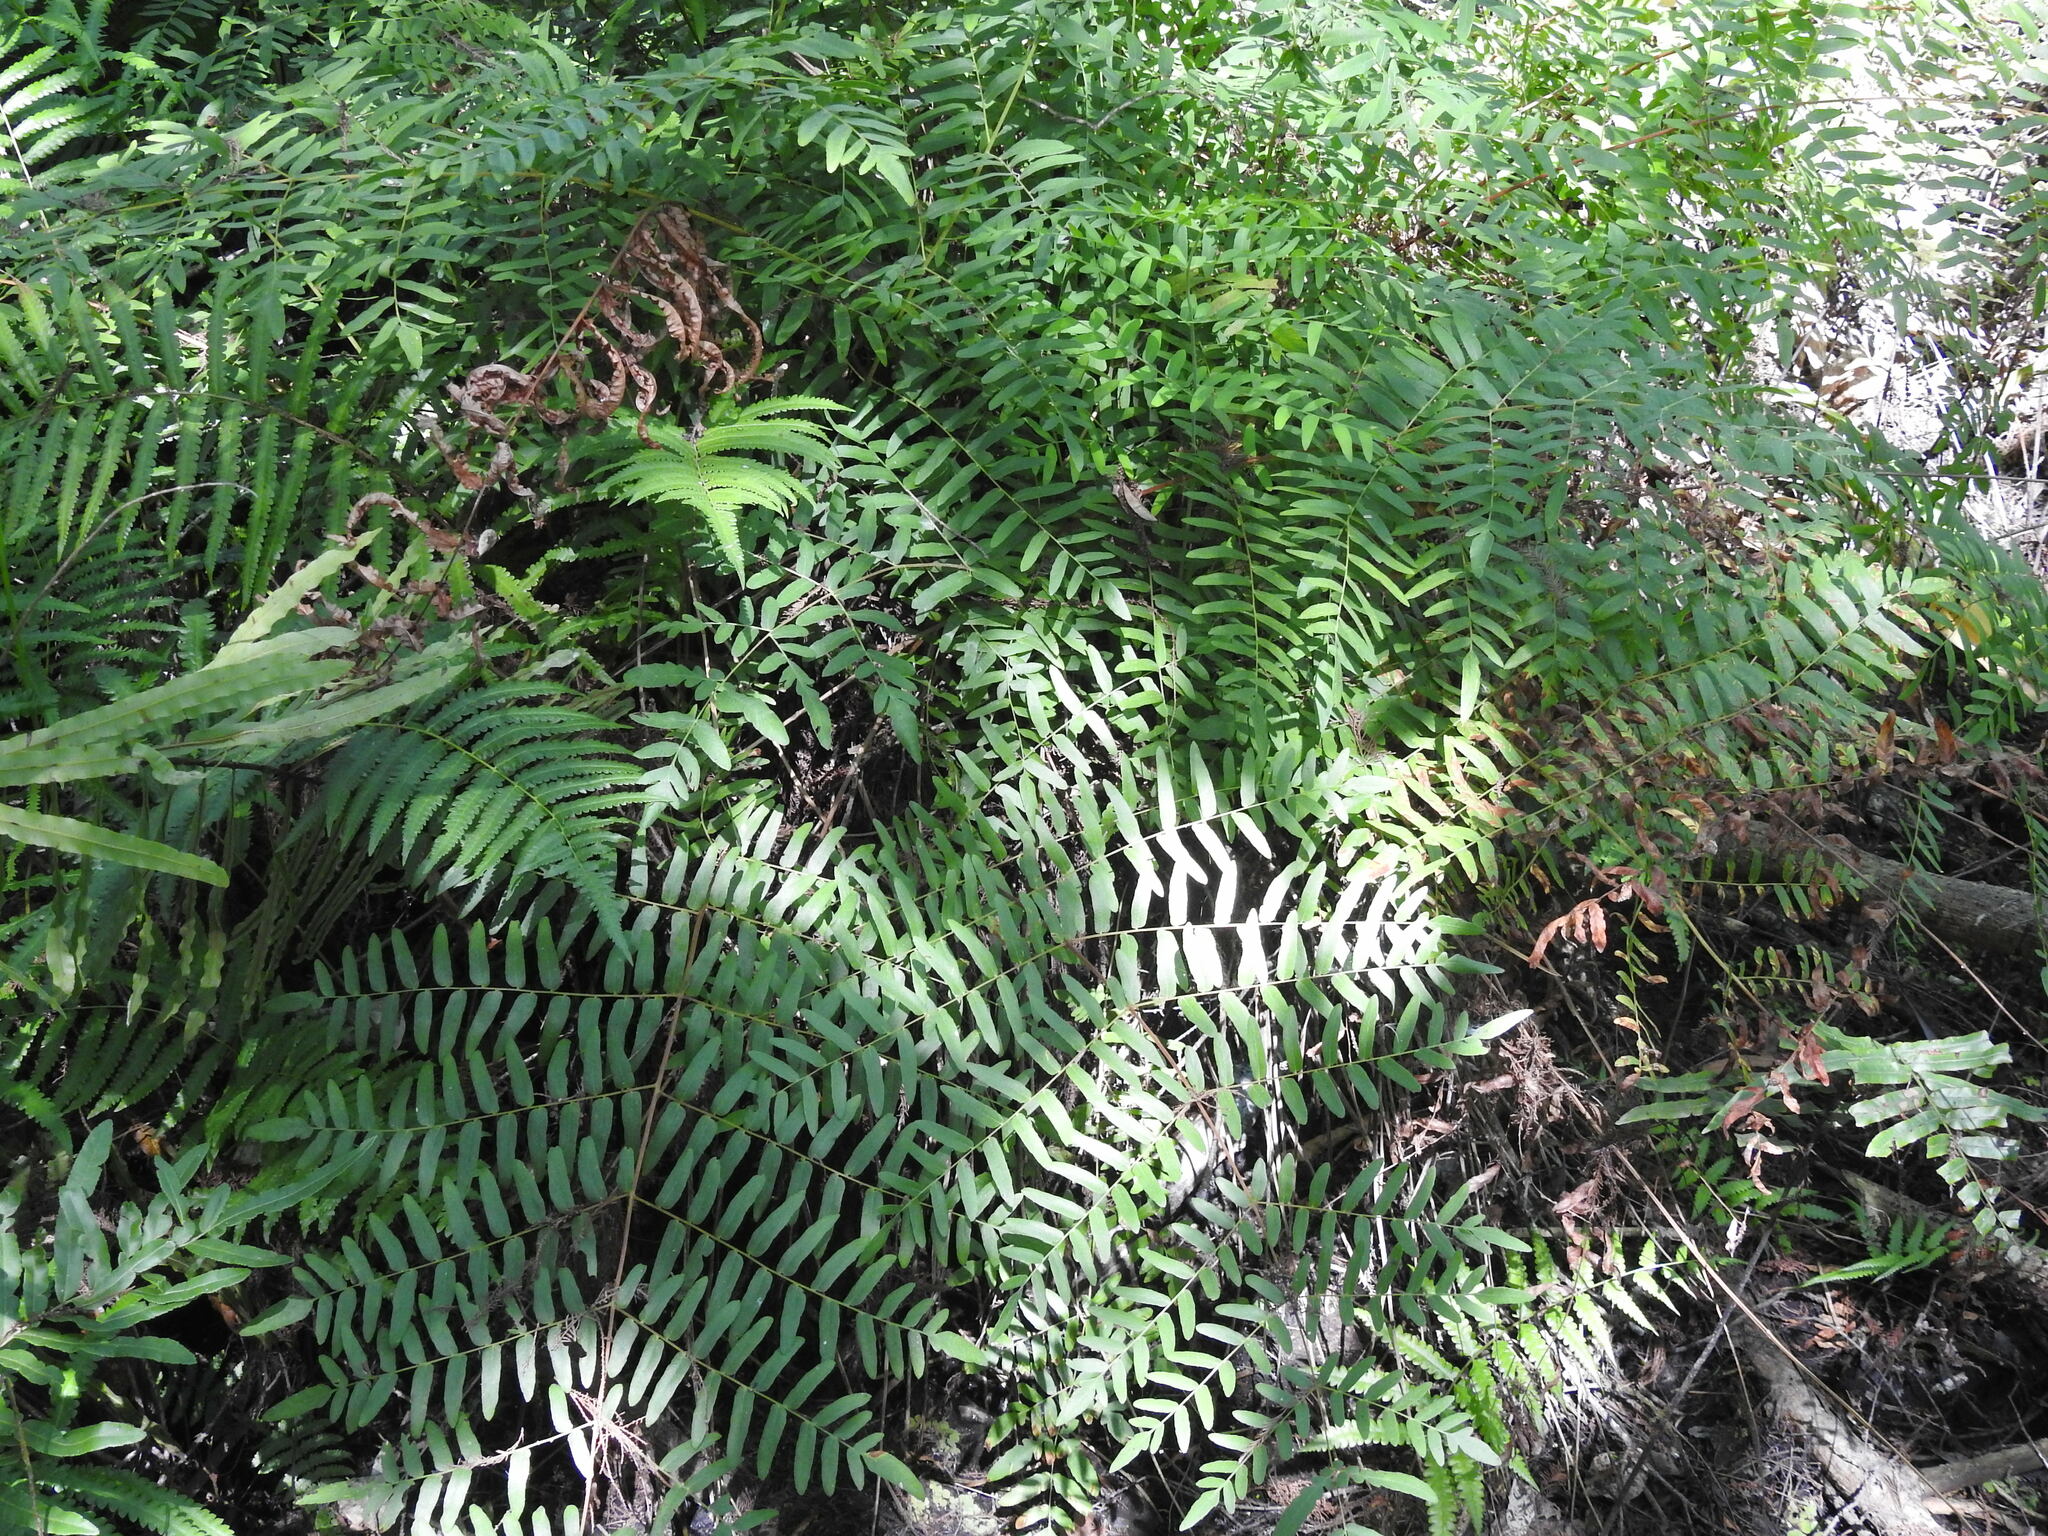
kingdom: Plantae
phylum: Tracheophyta
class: Polypodiopsida
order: Osmundales
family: Osmundaceae
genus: Osmunda
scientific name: Osmunda spectabilis
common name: American royal fern
